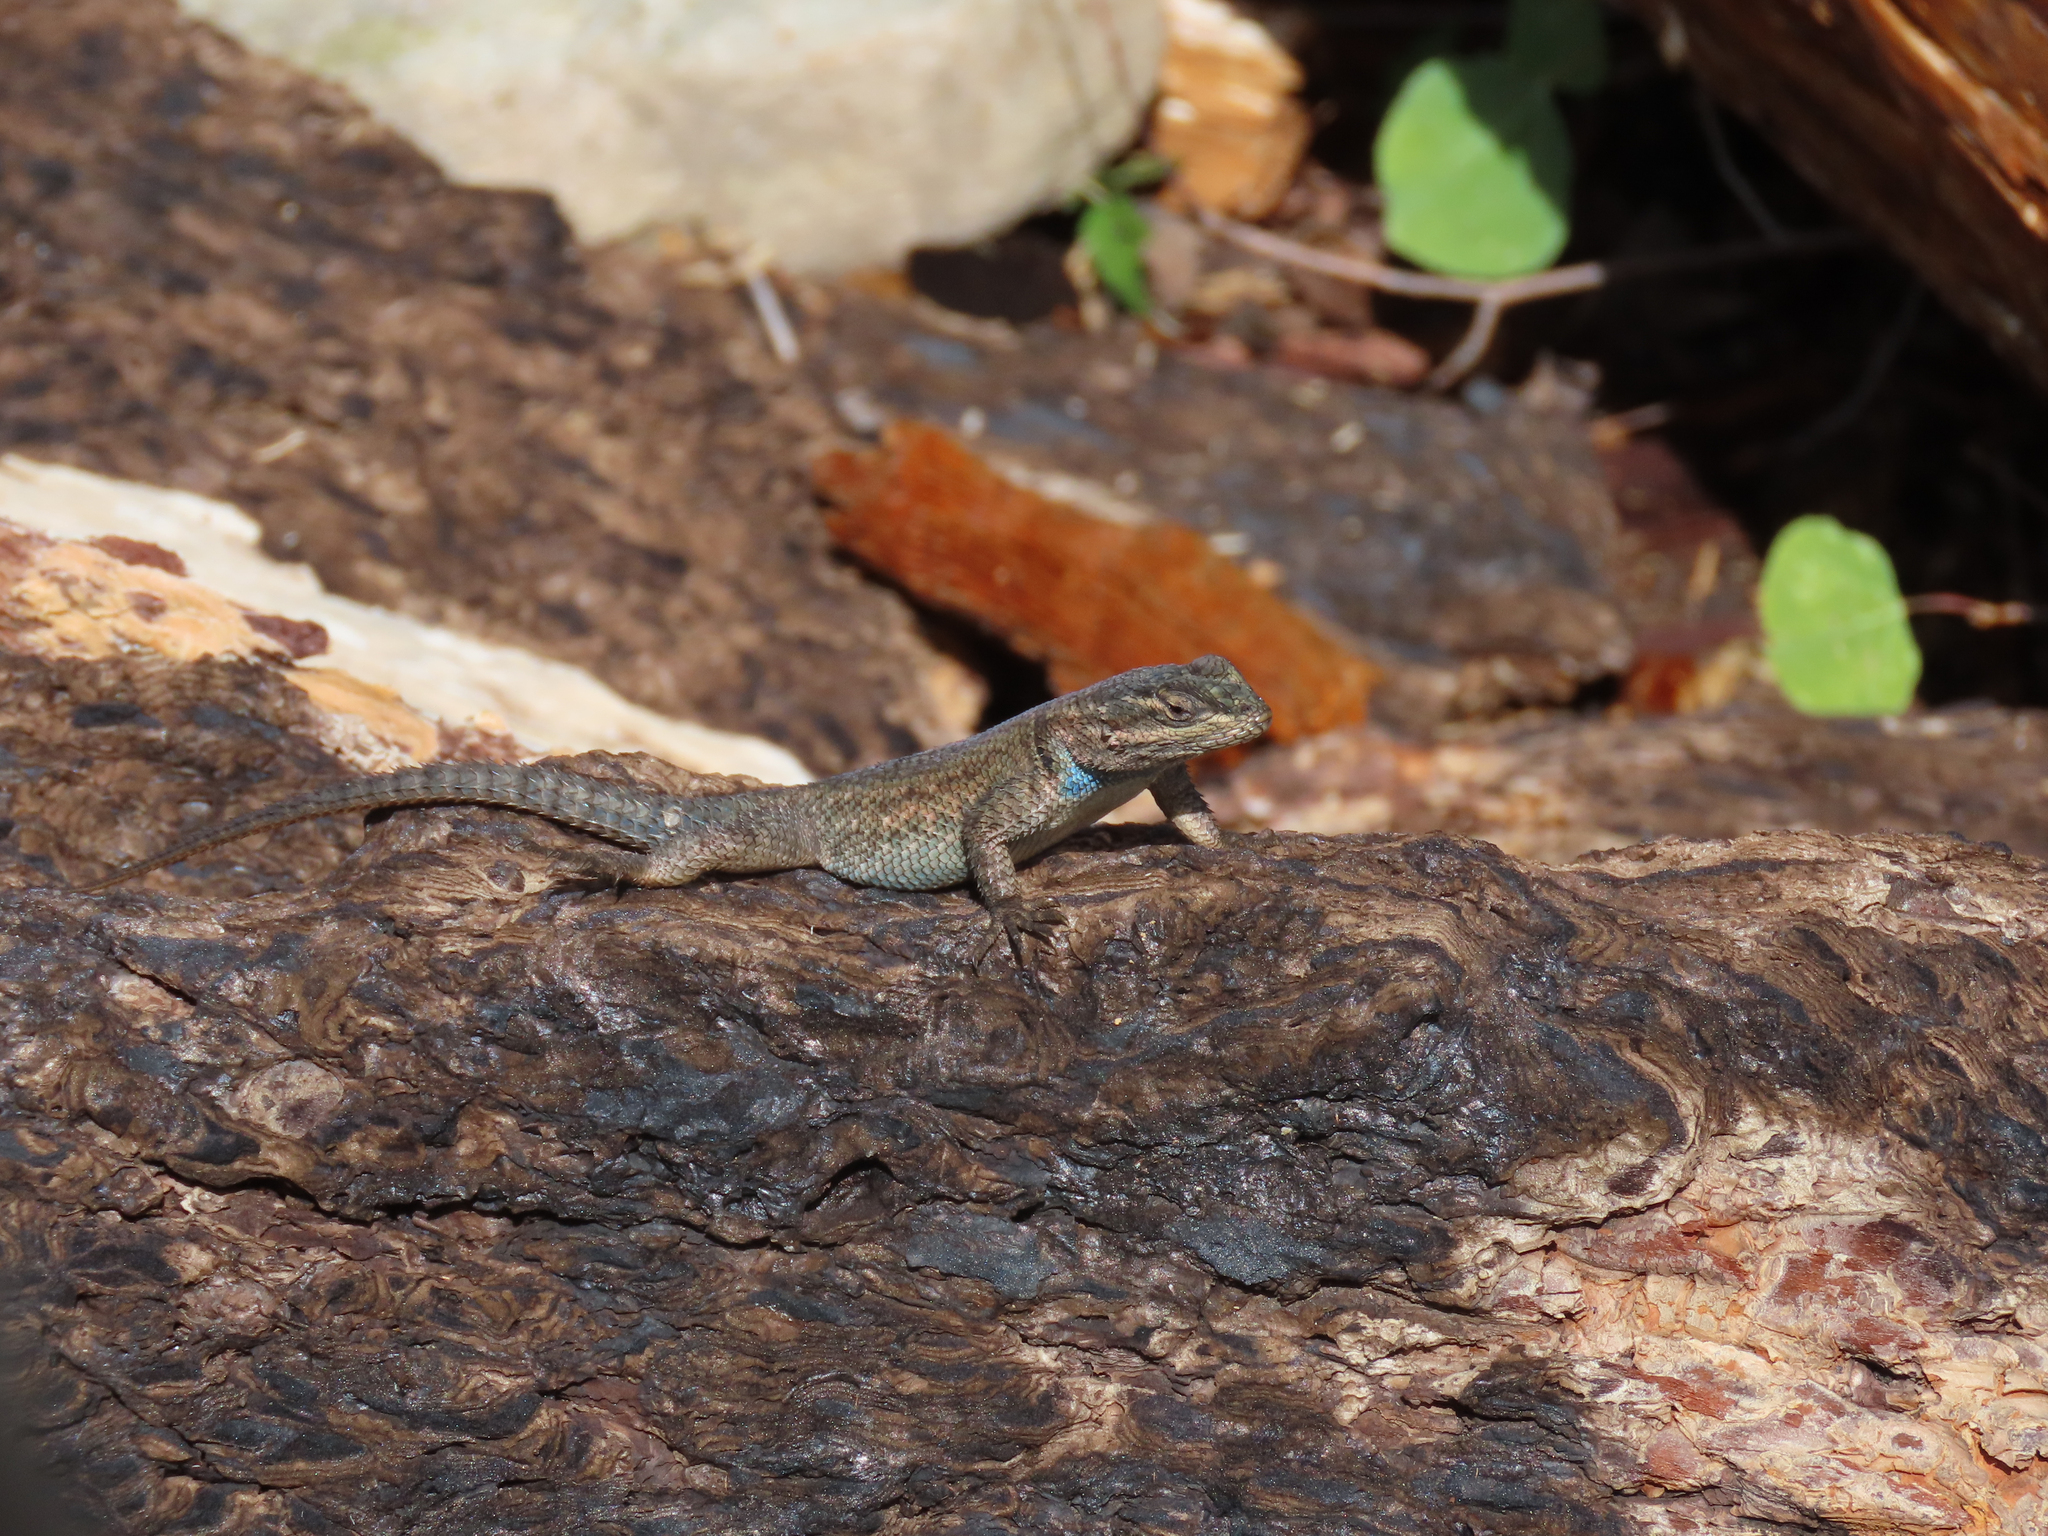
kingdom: Animalia
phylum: Chordata
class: Squamata
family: Phrynosomatidae
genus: Sceloporus
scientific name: Sceloporus jarrovii
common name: Yarrow's spiny lizard
